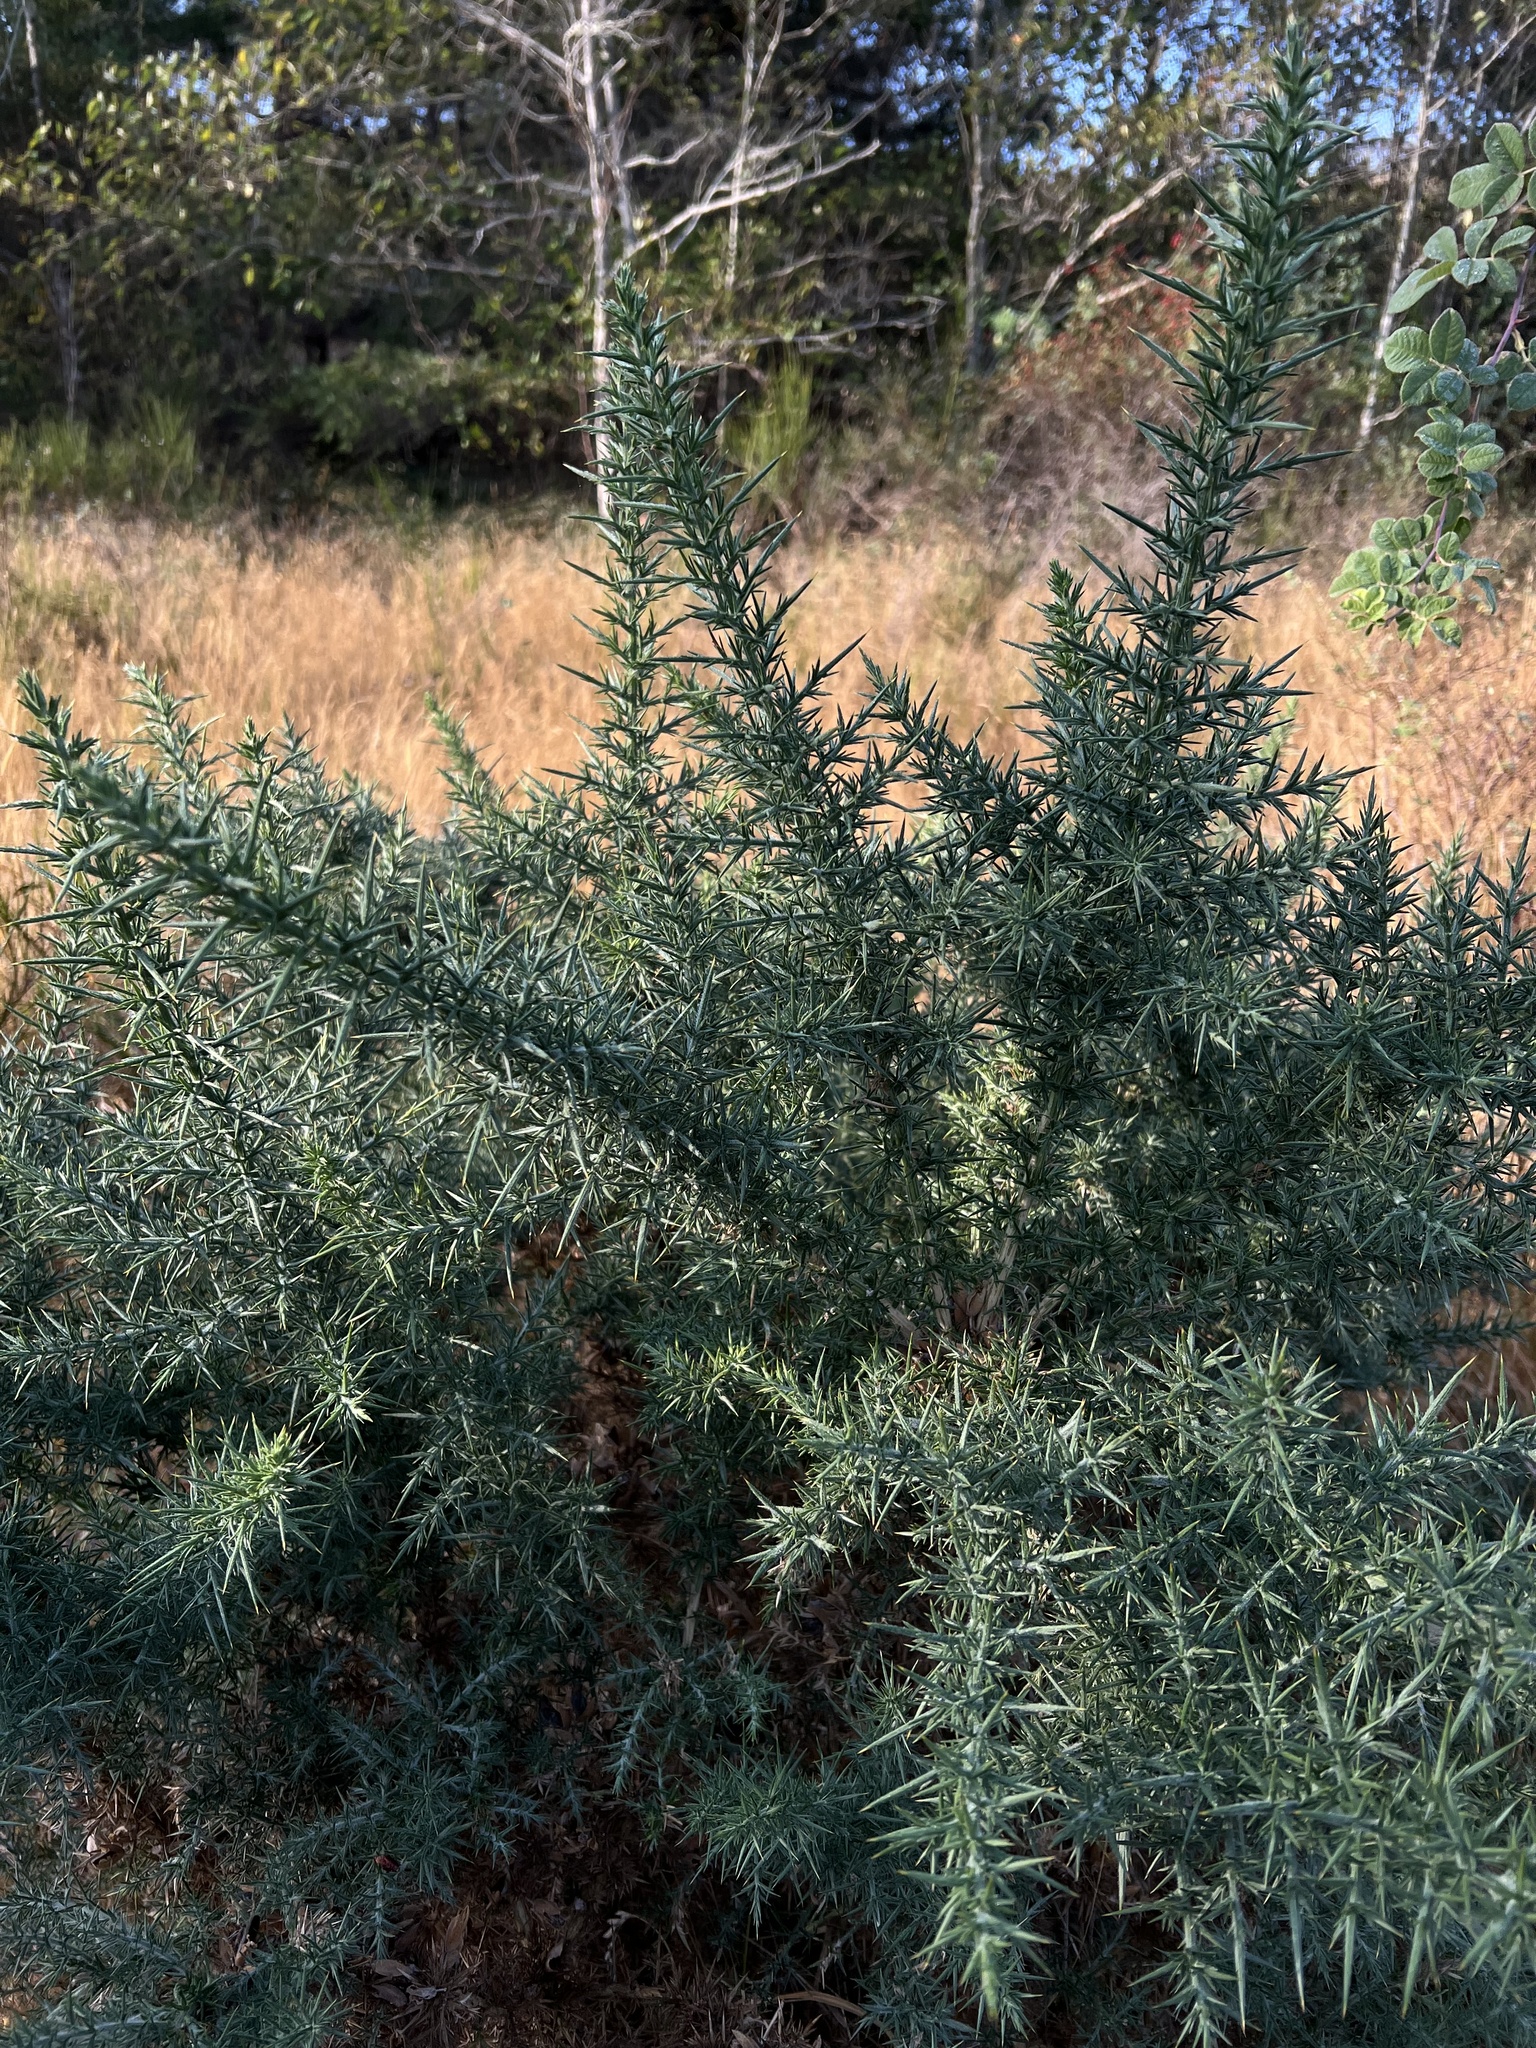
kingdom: Plantae
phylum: Tracheophyta
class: Magnoliopsida
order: Fabales
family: Fabaceae
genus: Ulex
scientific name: Ulex europaeus
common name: Common gorse
